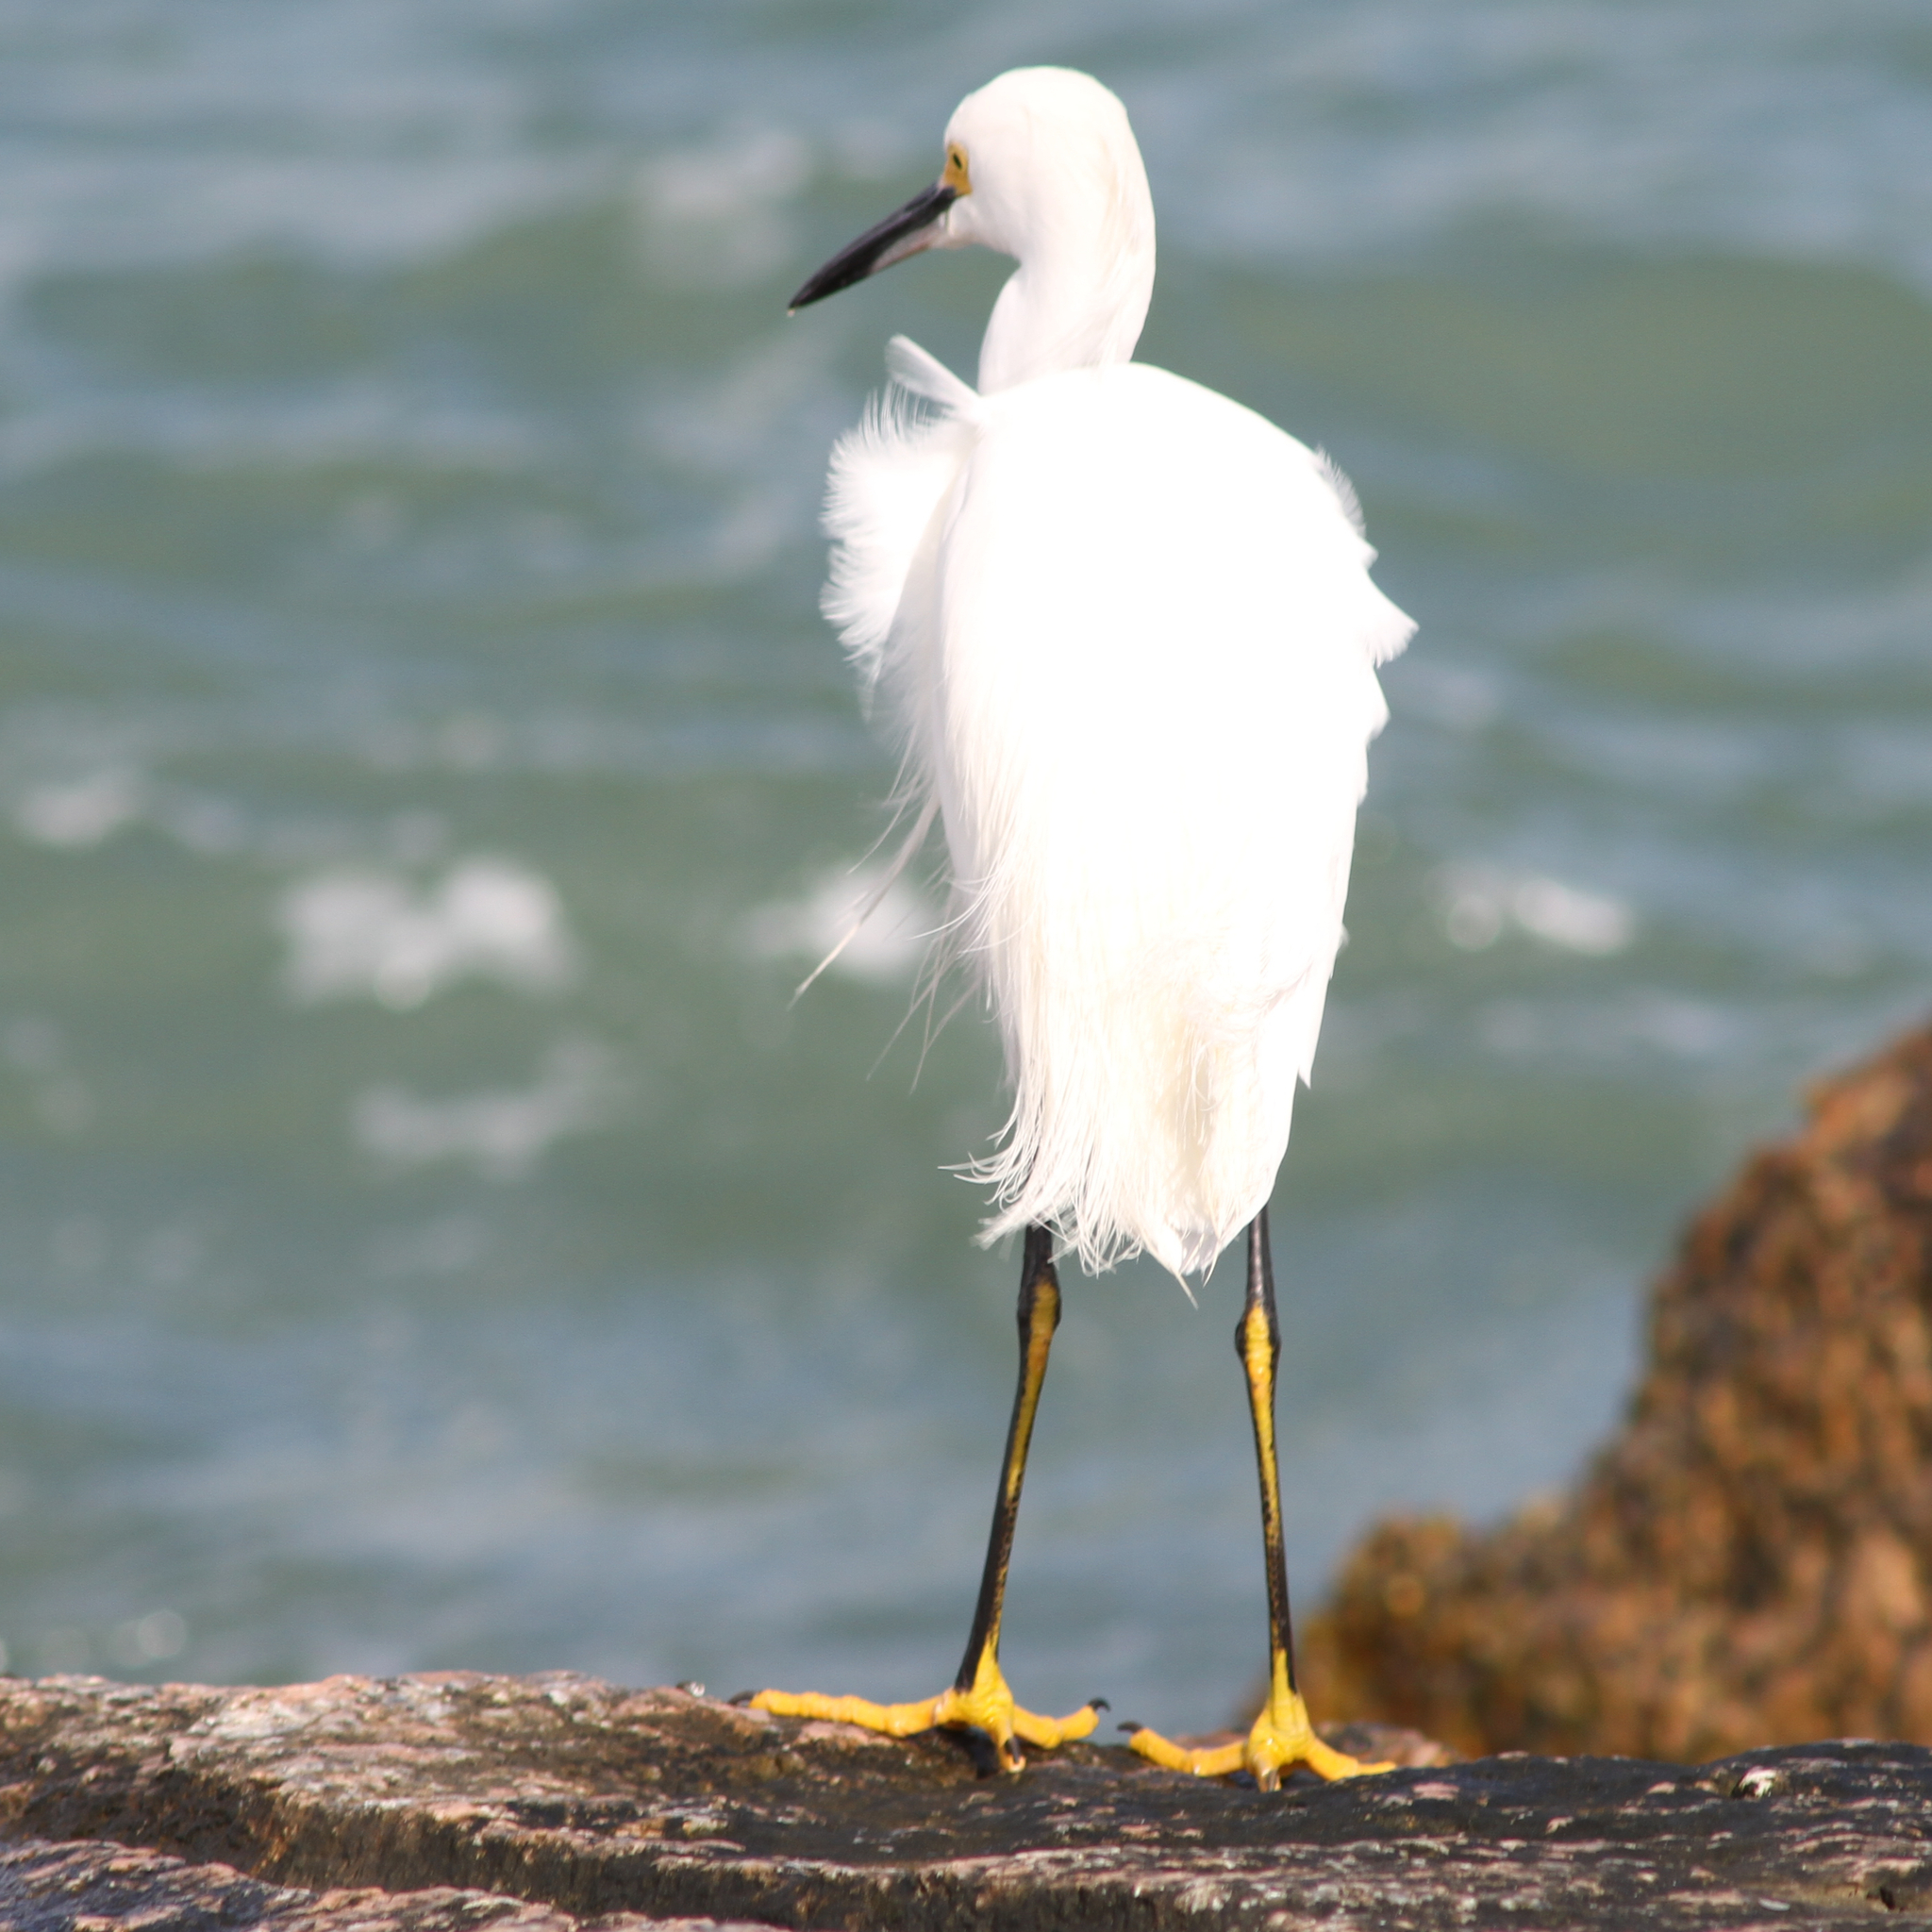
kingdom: Animalia
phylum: Chordata
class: Aves
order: Pelecaniformes
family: Ardeidae
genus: Egretta
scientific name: Egretta thula
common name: Snowy egret
